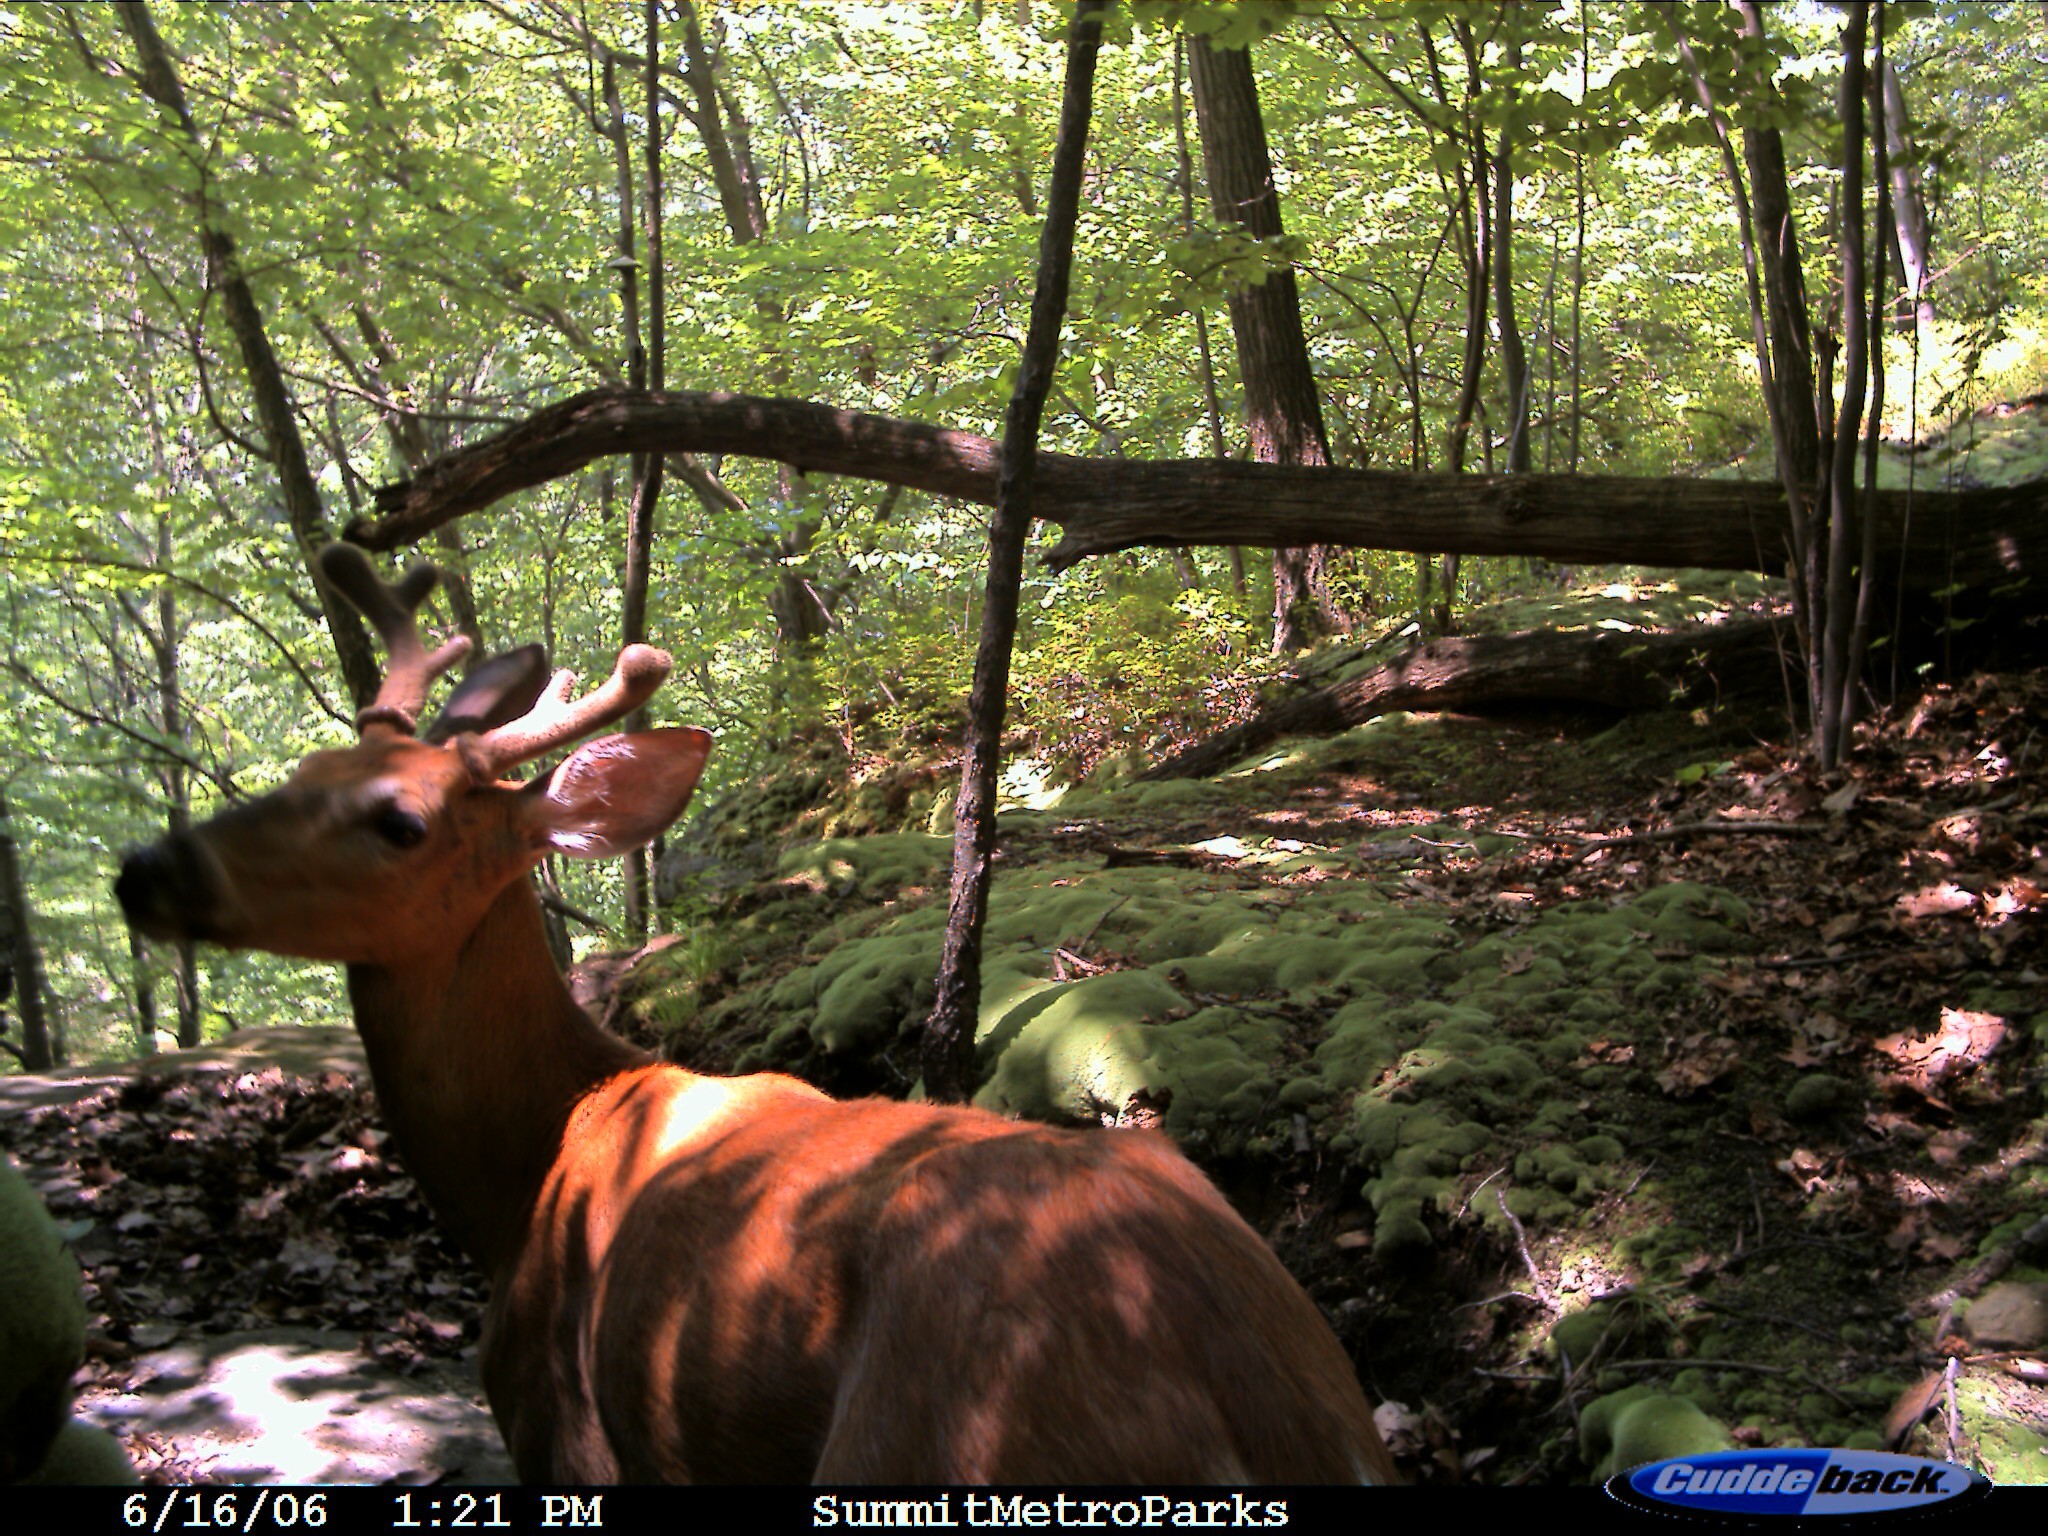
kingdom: Animalia
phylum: Chordata
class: Mammalia
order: Artiodactyla
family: Cervidae
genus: Odocoileus
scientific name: Odocoileus virginianus
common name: White-tailed deer
